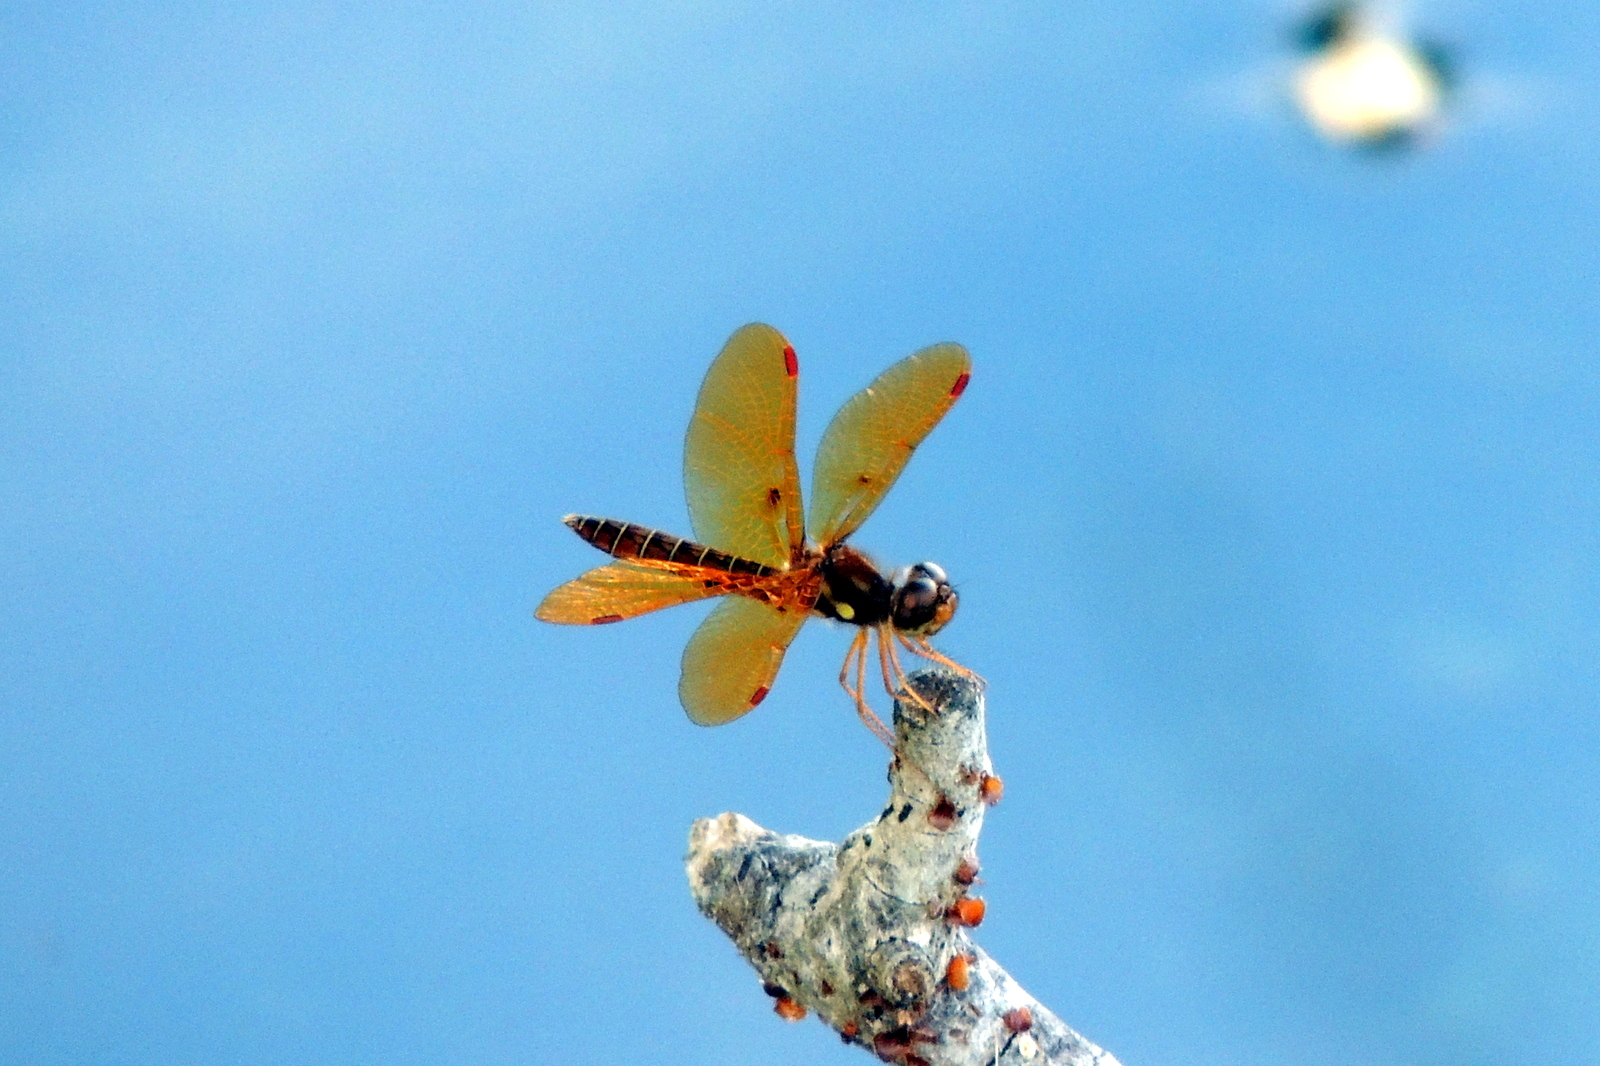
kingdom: Animalia
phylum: Arthropoda
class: Insecta
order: Odonata
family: Libellulidae
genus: Perithemis
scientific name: Perithemis tenera
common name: Eastern amberwing
